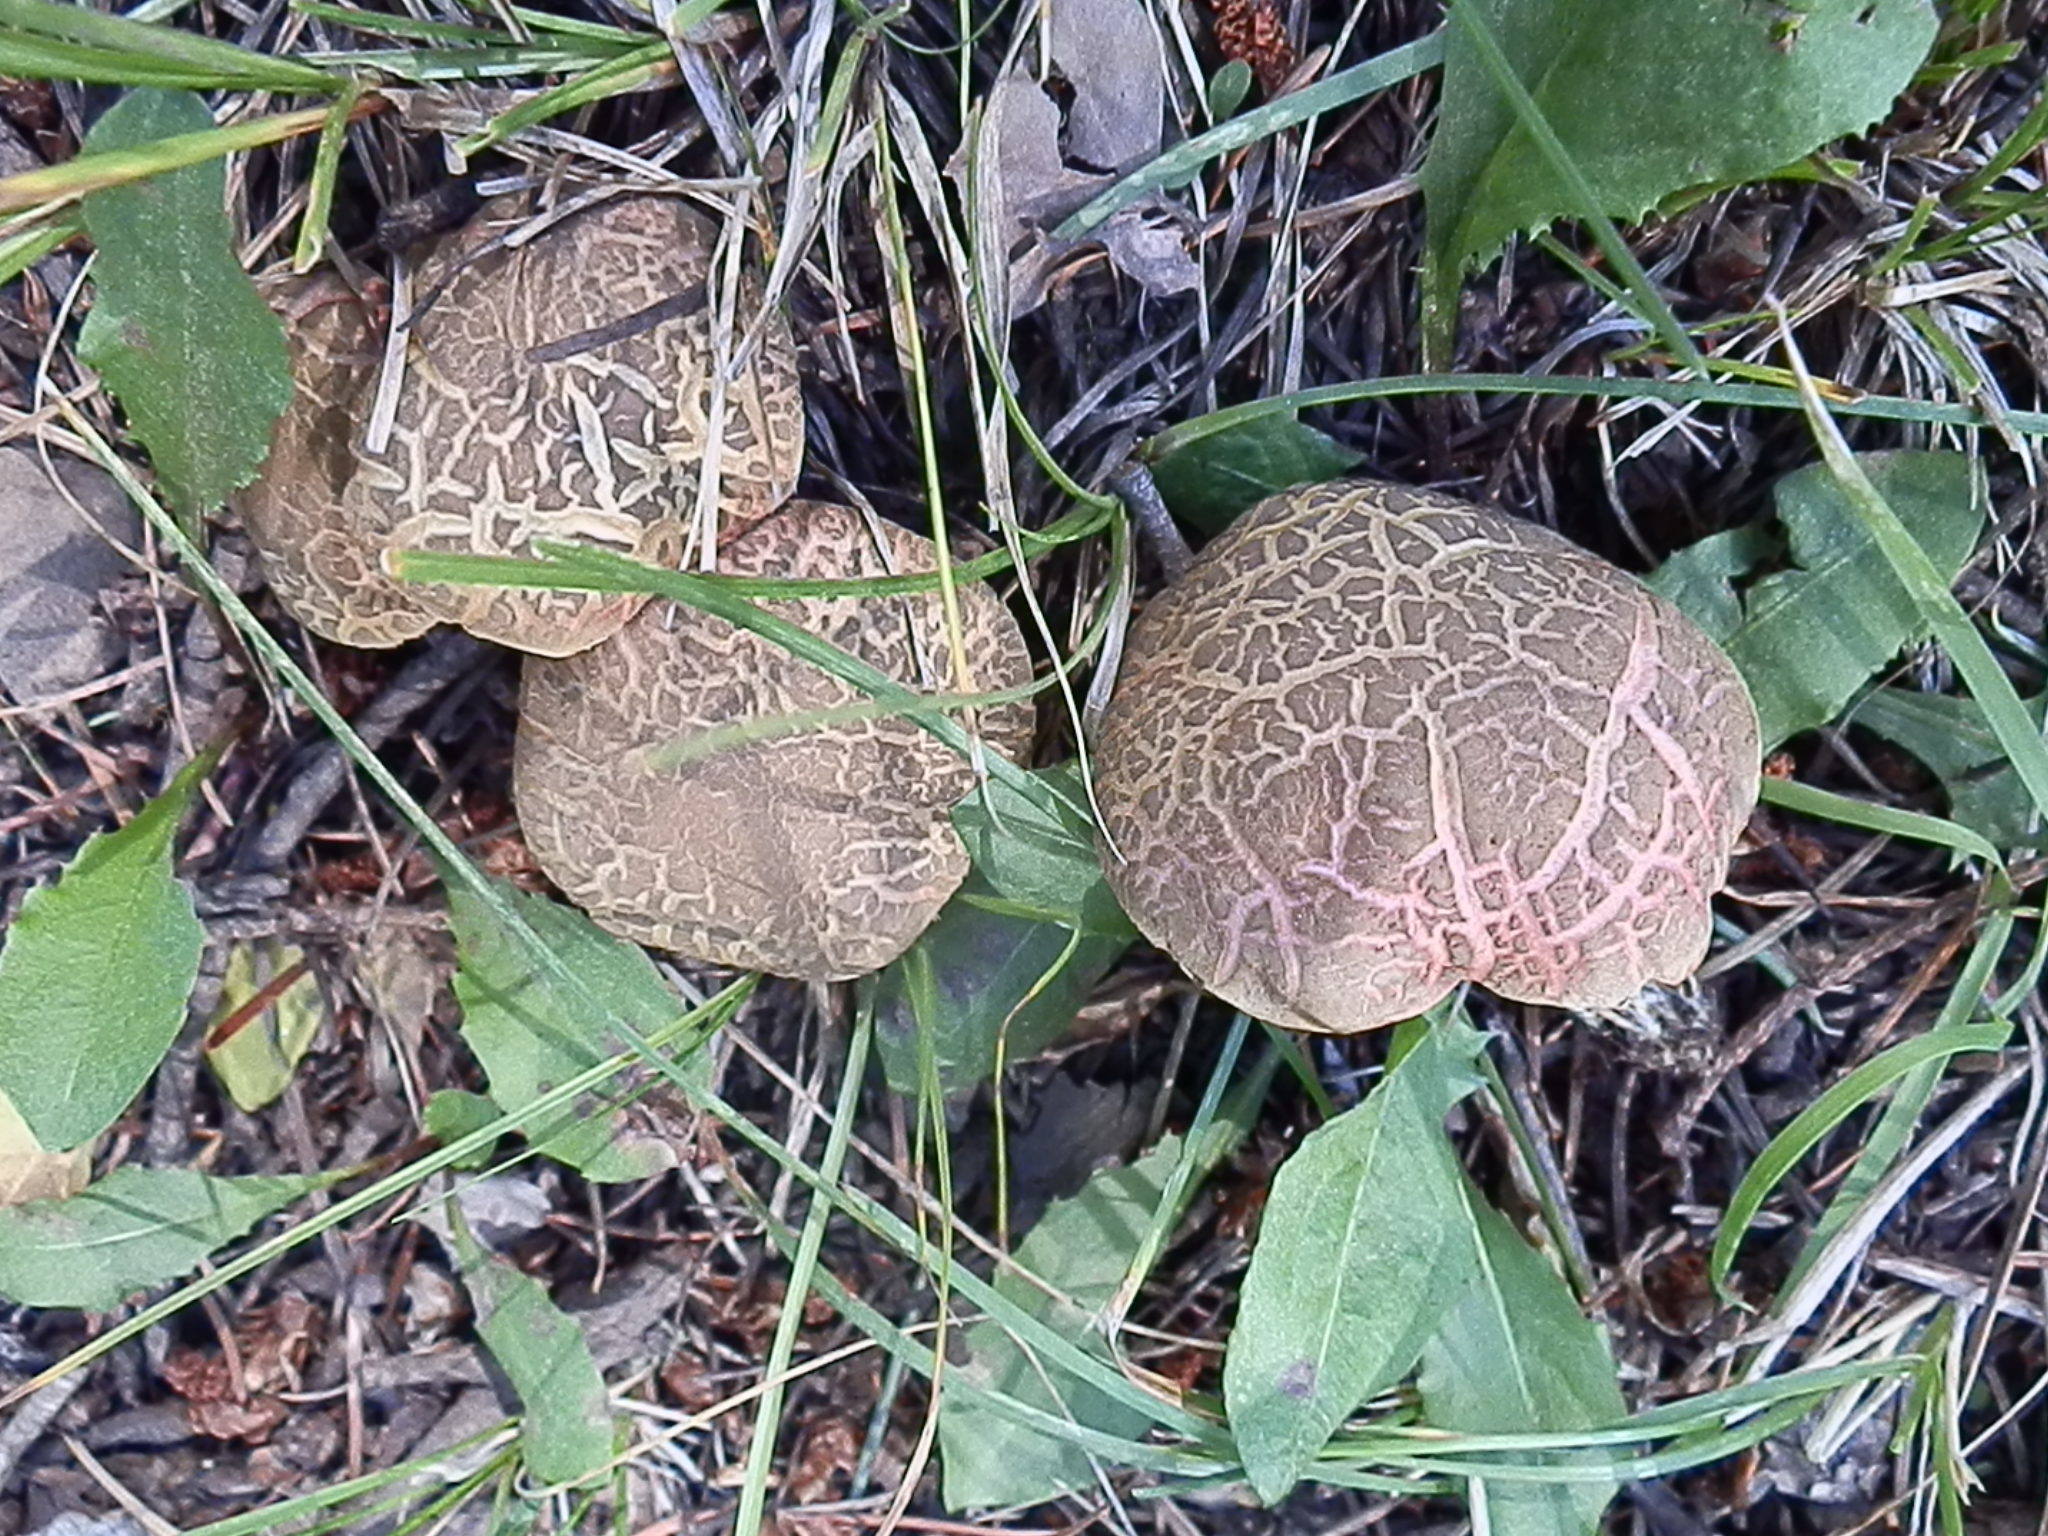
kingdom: Fungi
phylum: Basidiomycota
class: Agaricomycetes
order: Boletales
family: Boletaceae
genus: Xerocomellus
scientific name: Xerocomellus diffractus
